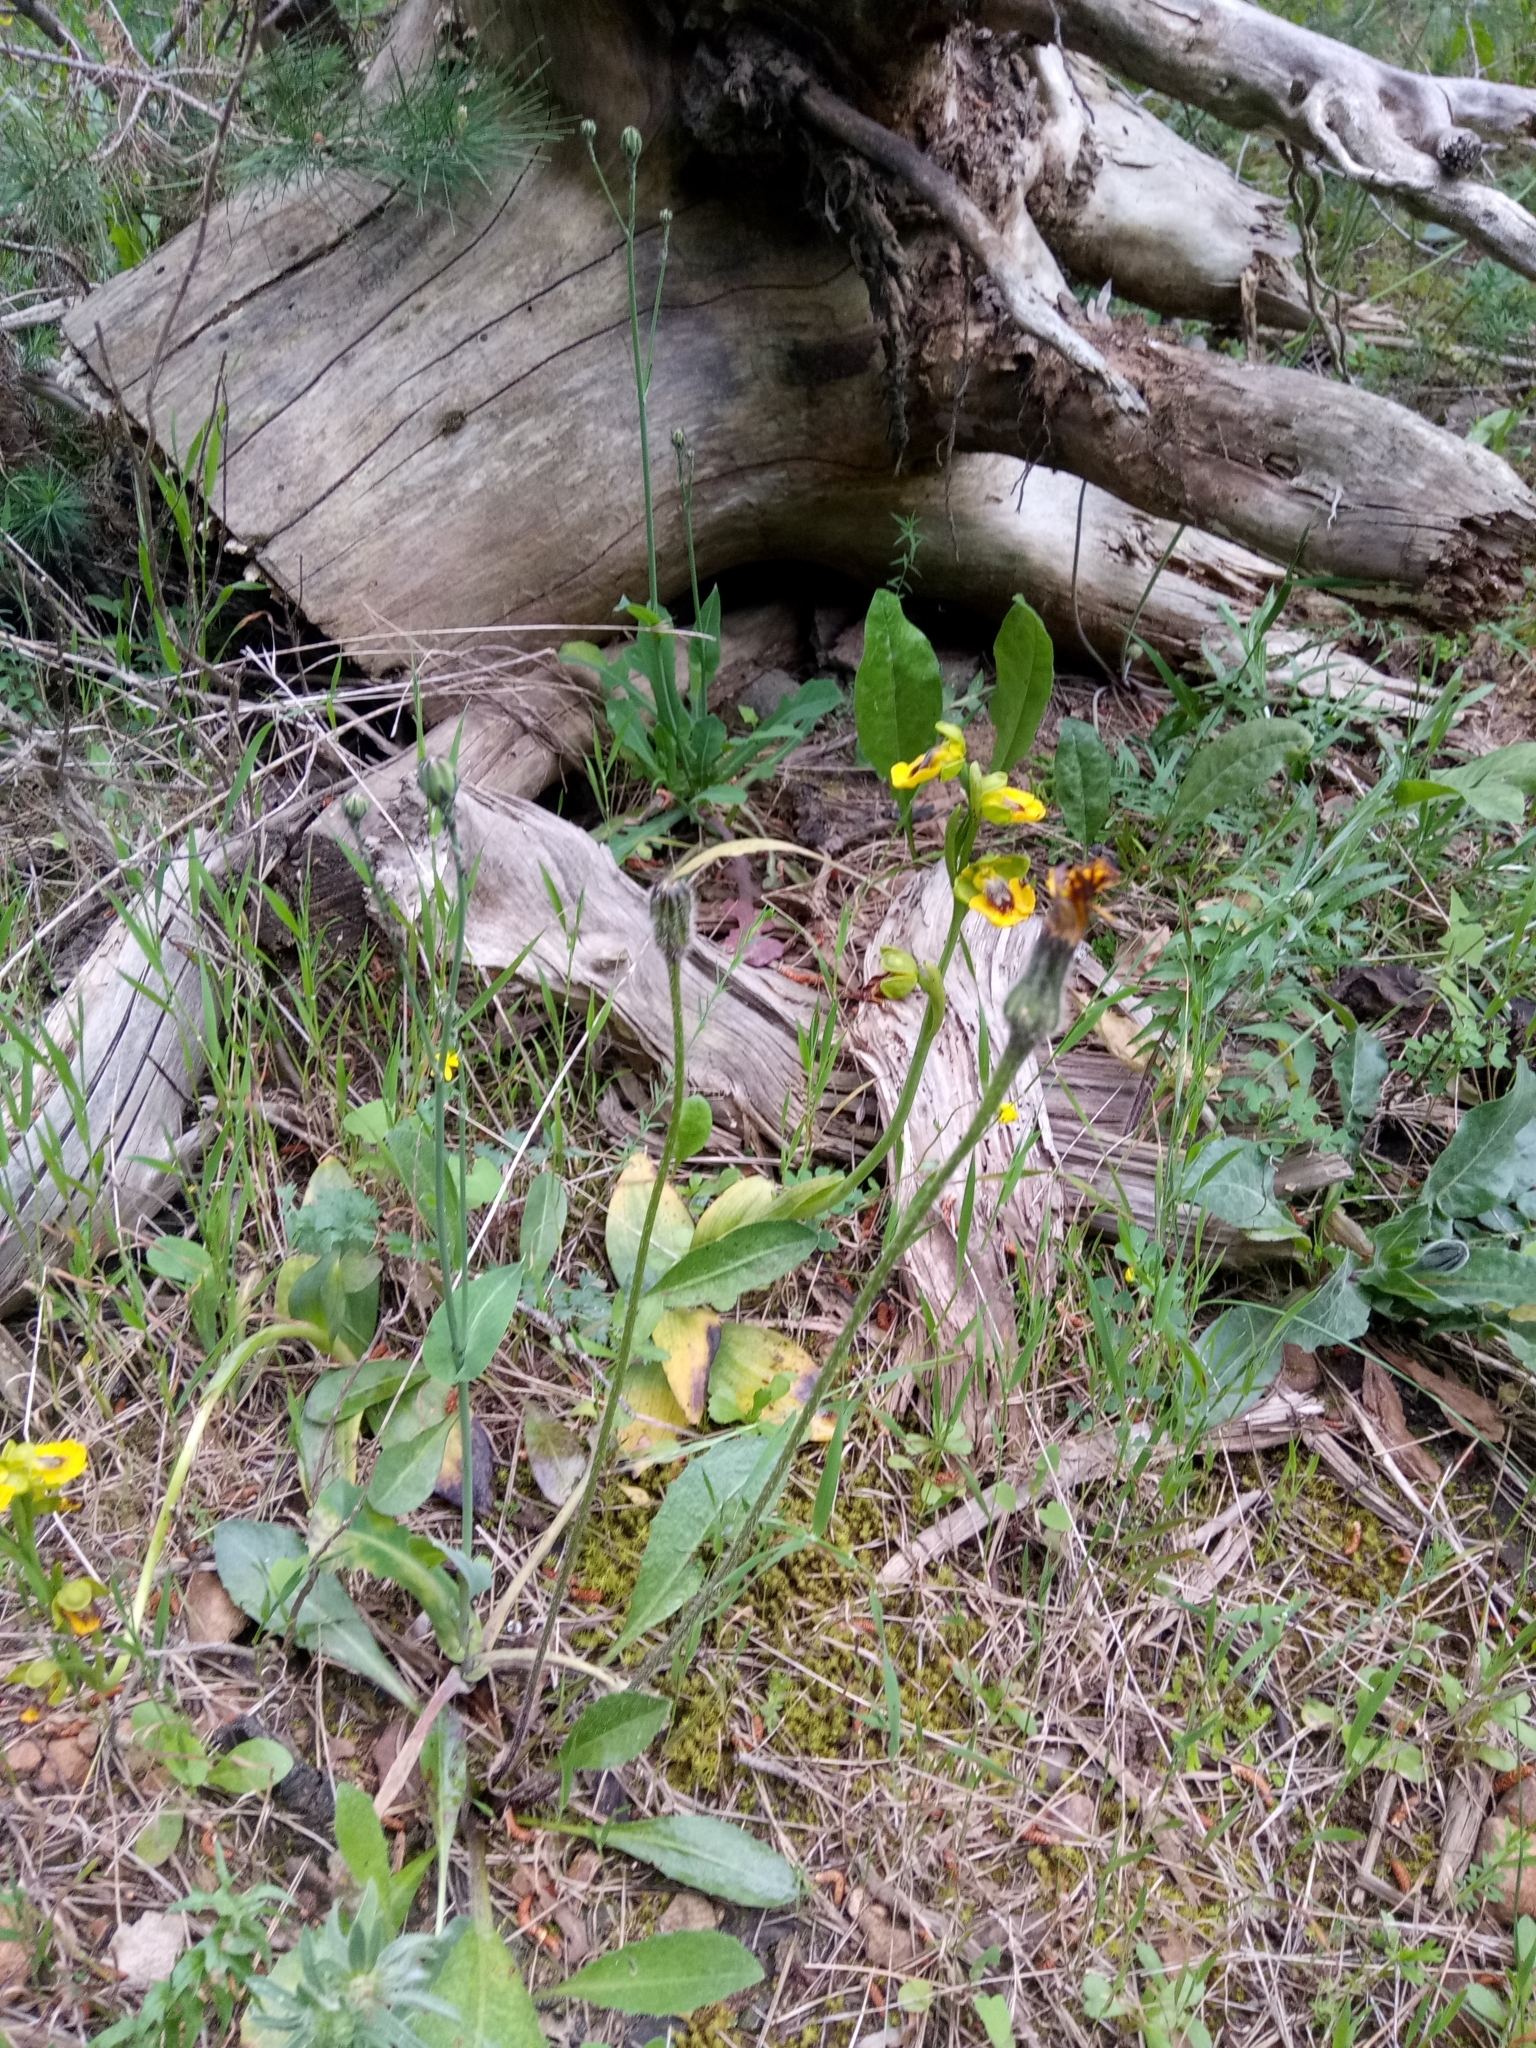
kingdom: Plantae
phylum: Tracheophyta
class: Liliopsida
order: Asparagales
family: Orchidaceae
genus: Ophrys
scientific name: Ophrys lutea
